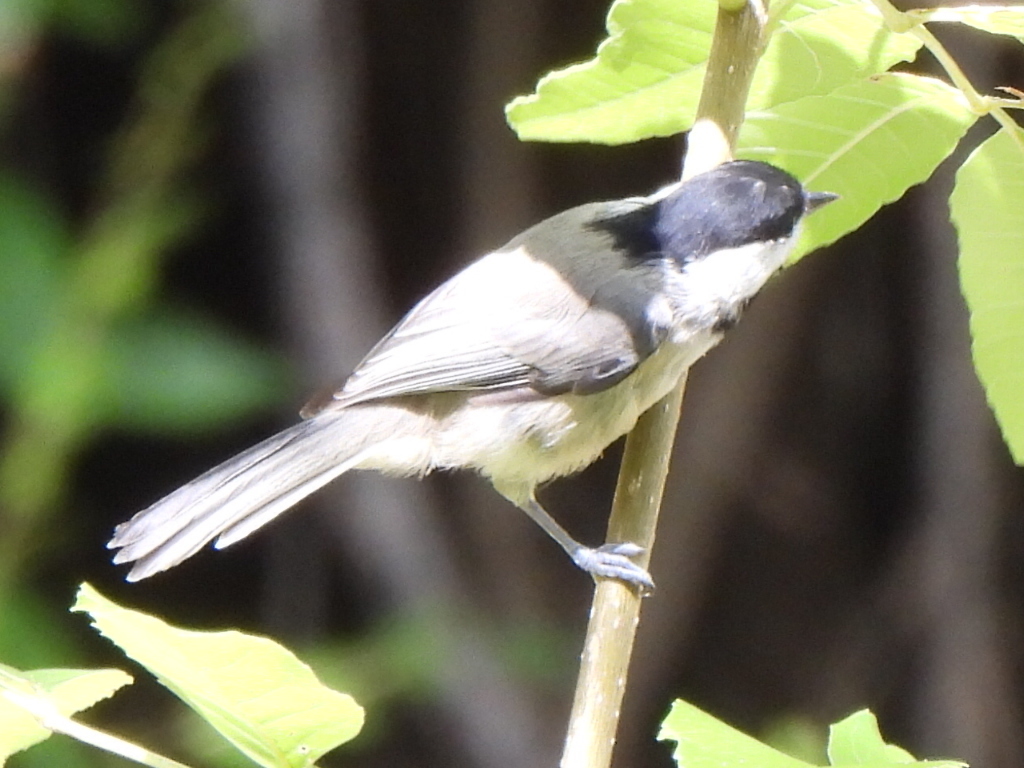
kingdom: Animalia
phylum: Chordata
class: Aves
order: Passeriformes
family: Paridae
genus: Poecile
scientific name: Poecile carolinensis
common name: Carolina chickadee
